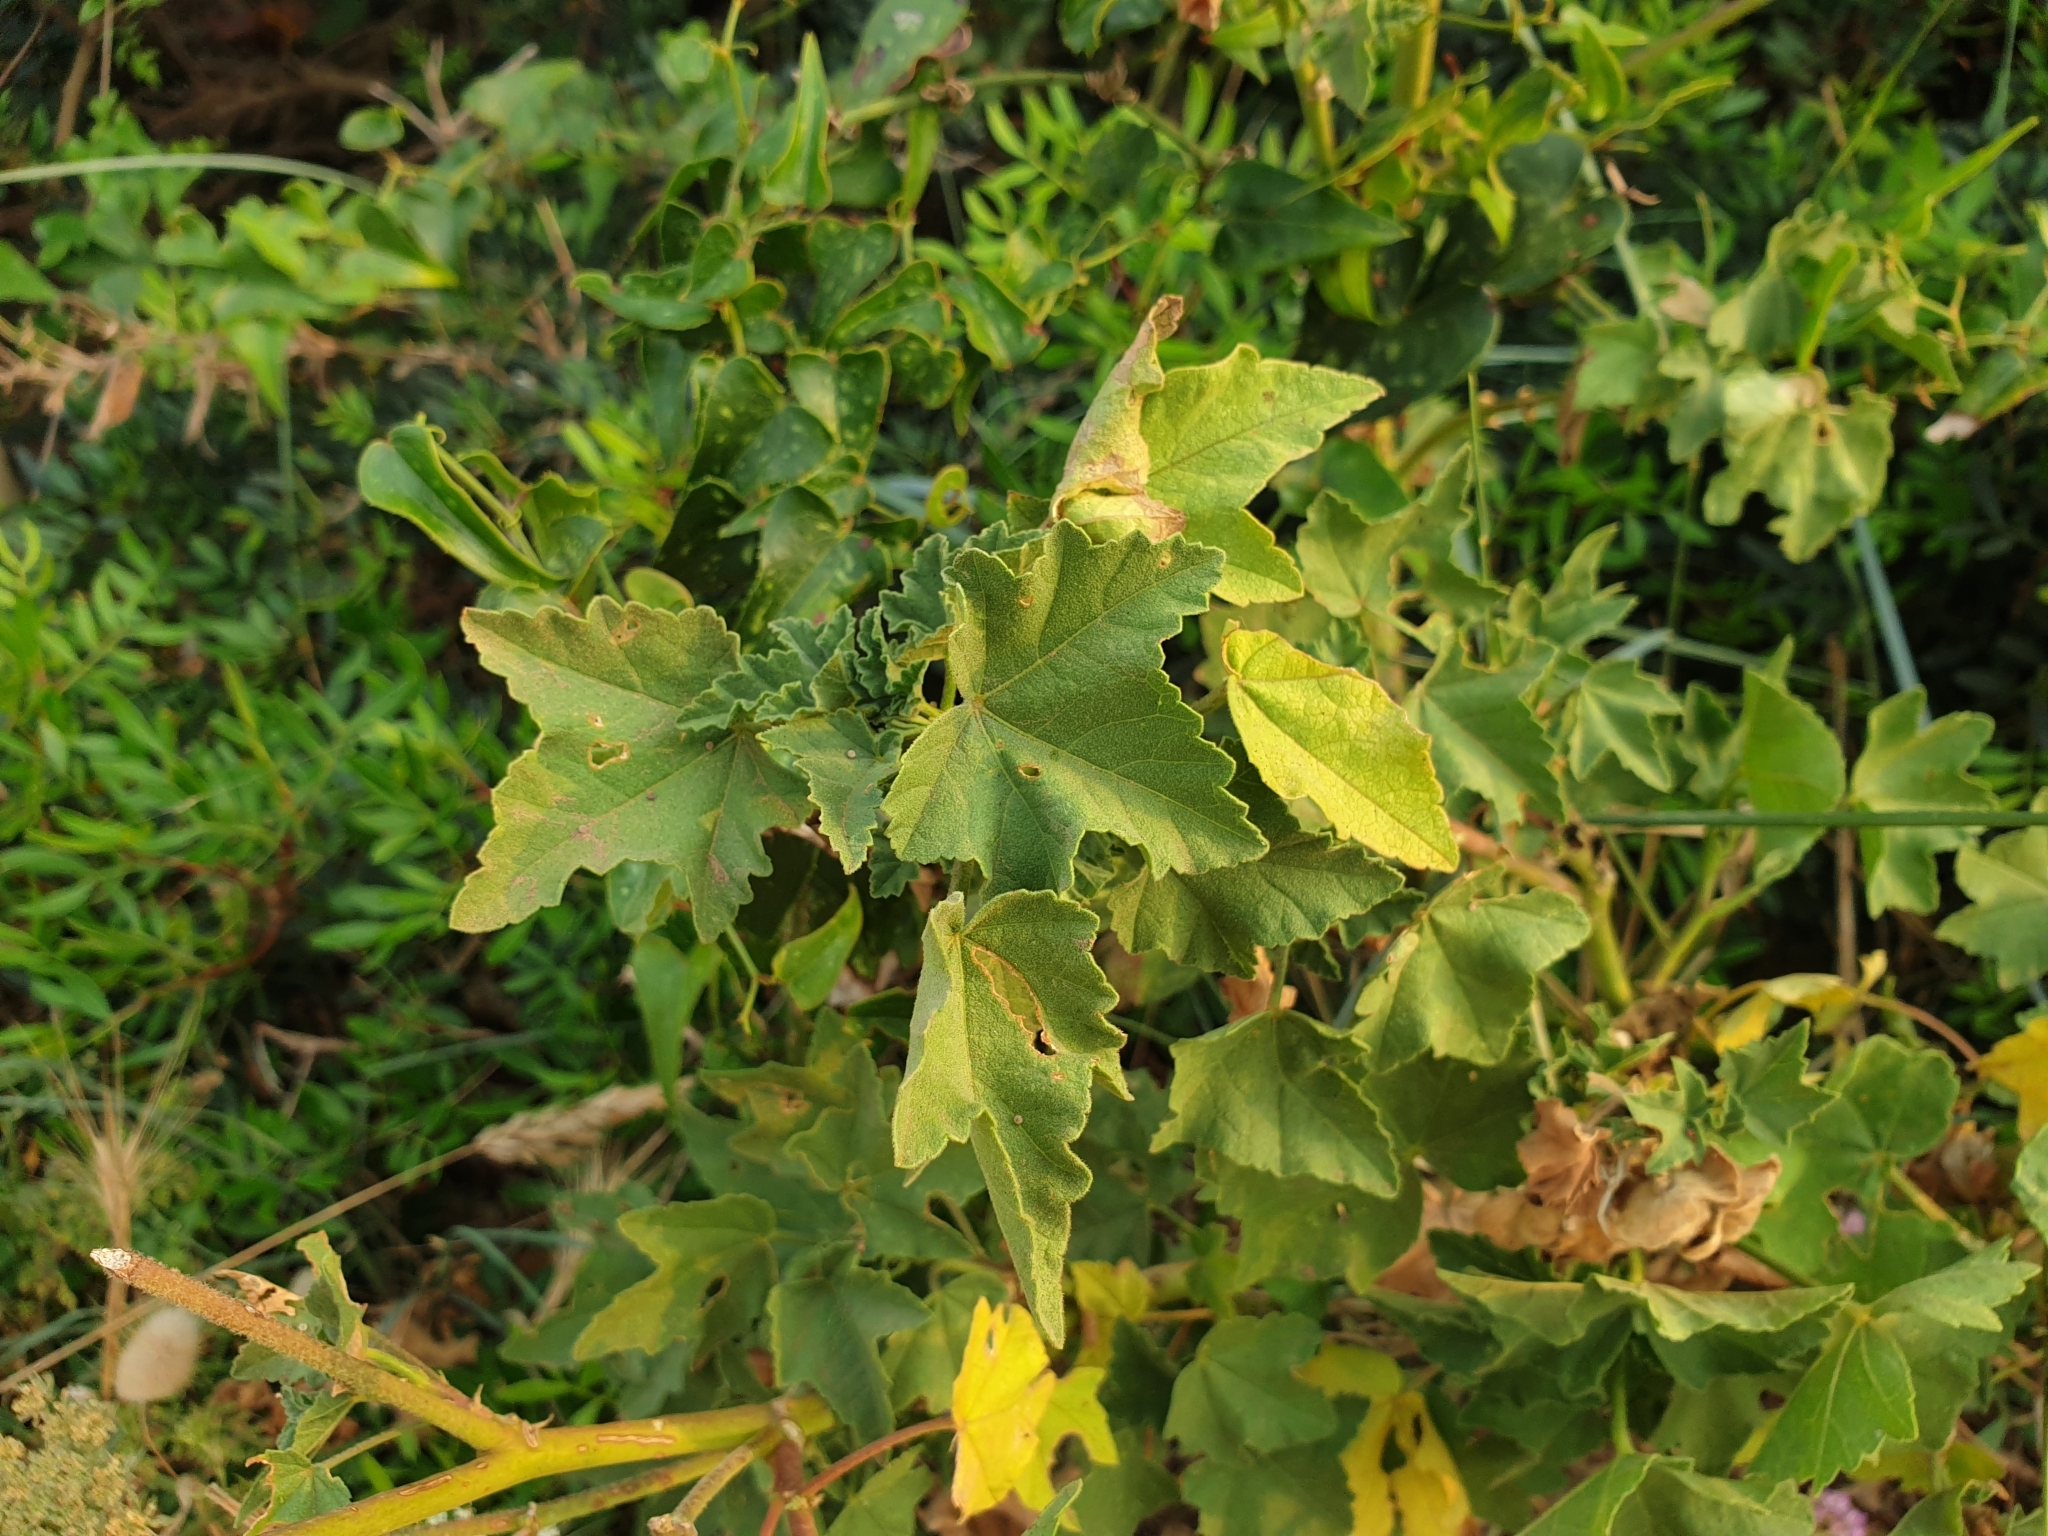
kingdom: Plantae
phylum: Tracheophyta
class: Magnoliopsida
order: Malvales
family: Malvaceae
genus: Malva
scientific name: Malva arborea
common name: Tree mallow
